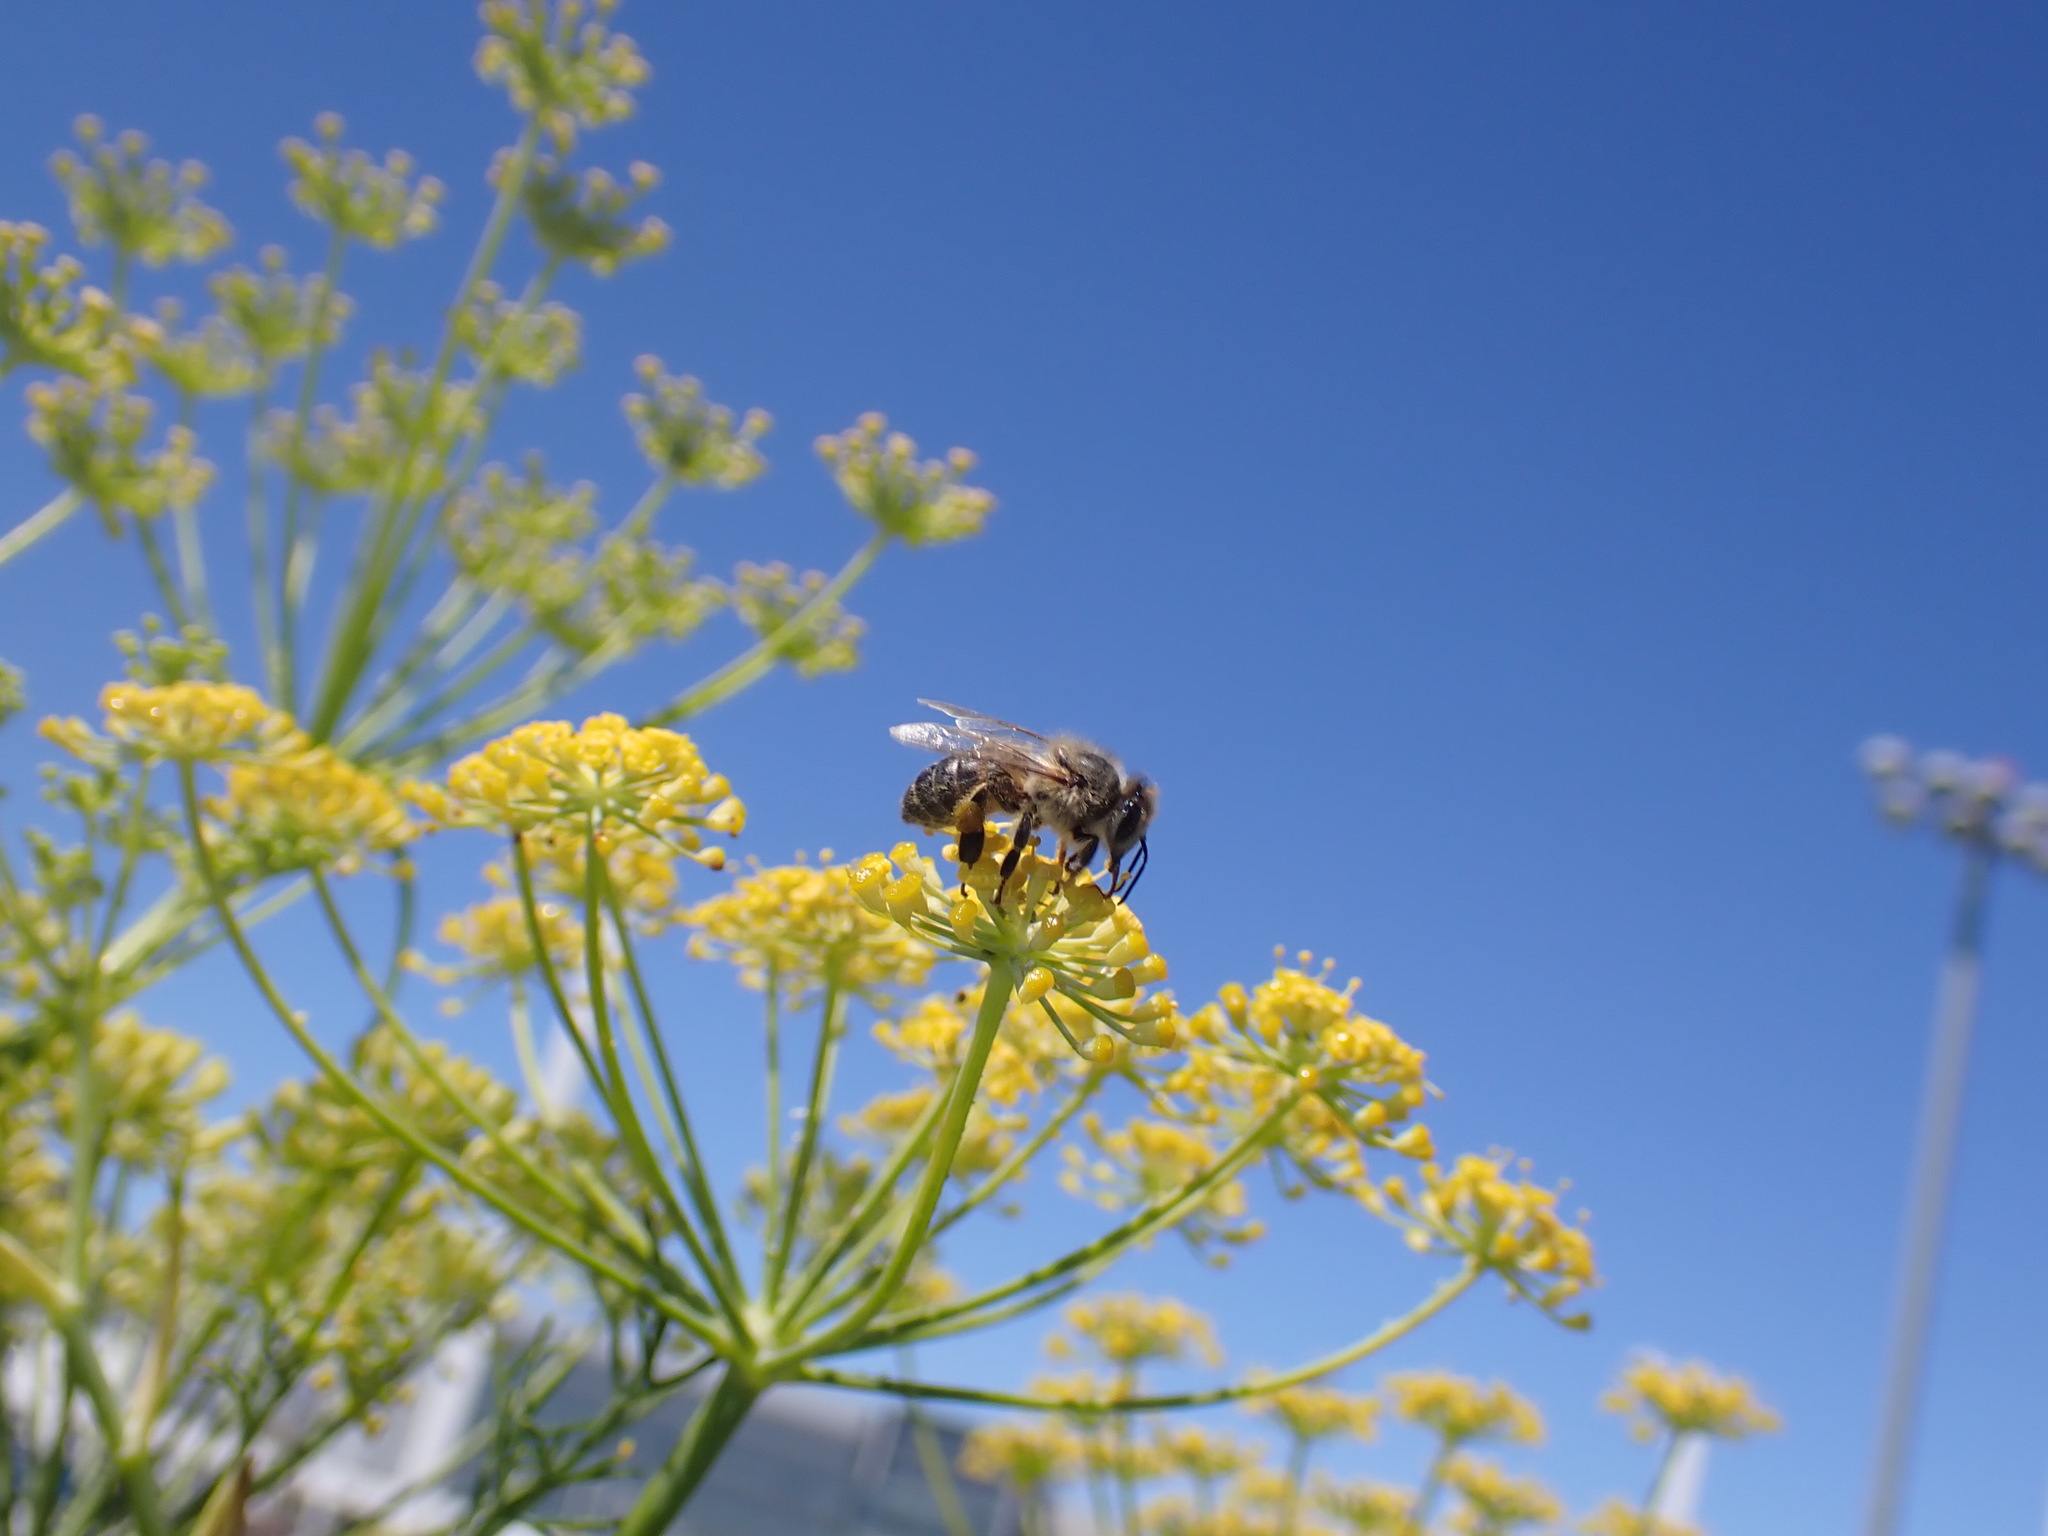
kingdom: Animalia
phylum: Arthropoda
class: Insecta
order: Hymenoptera
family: Apidae
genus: Apis
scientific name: Apis mellifera
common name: Honey bee
